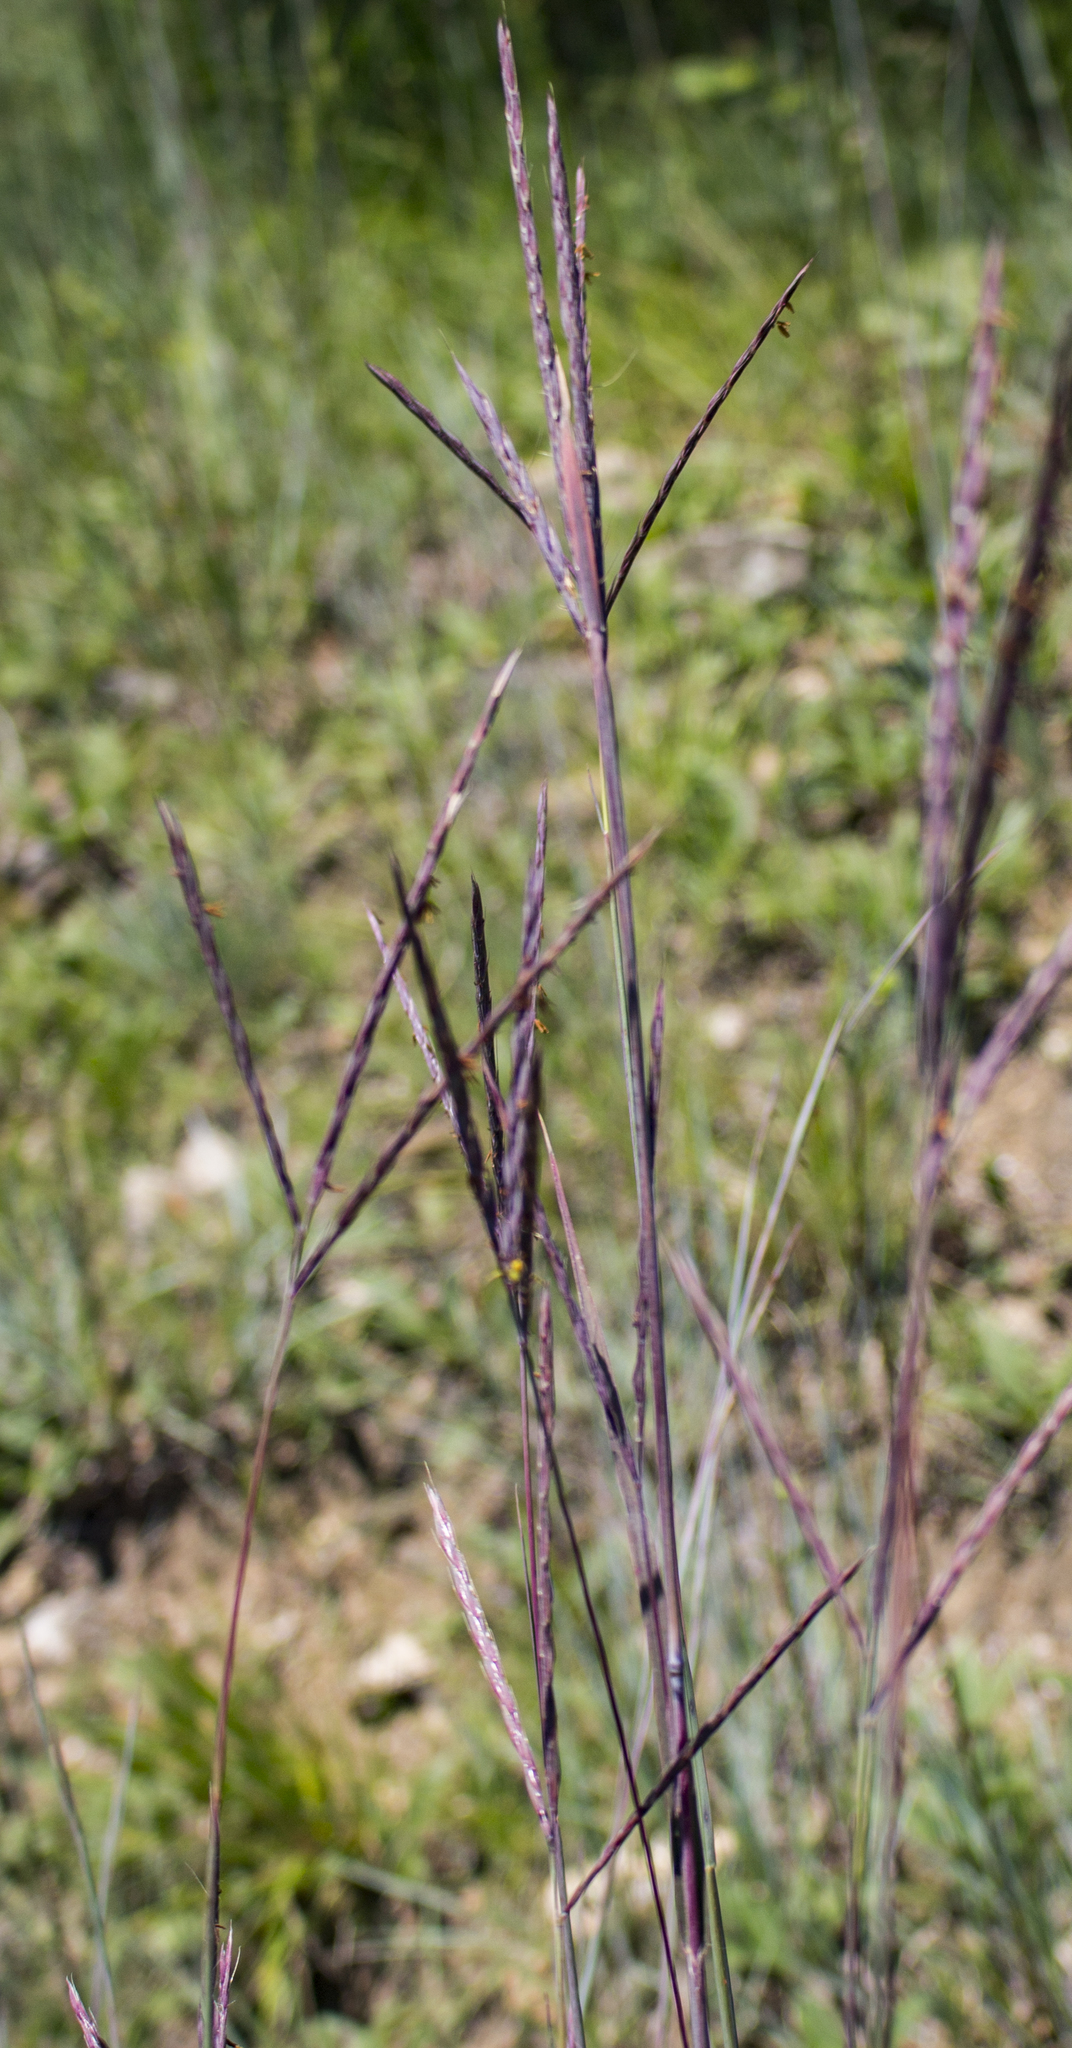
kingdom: Plantae
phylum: Tracheophyta
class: Liliopsida
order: Poales
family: Poaceae
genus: Andropogon
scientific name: Andropogon gerardi
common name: Big bluestem
